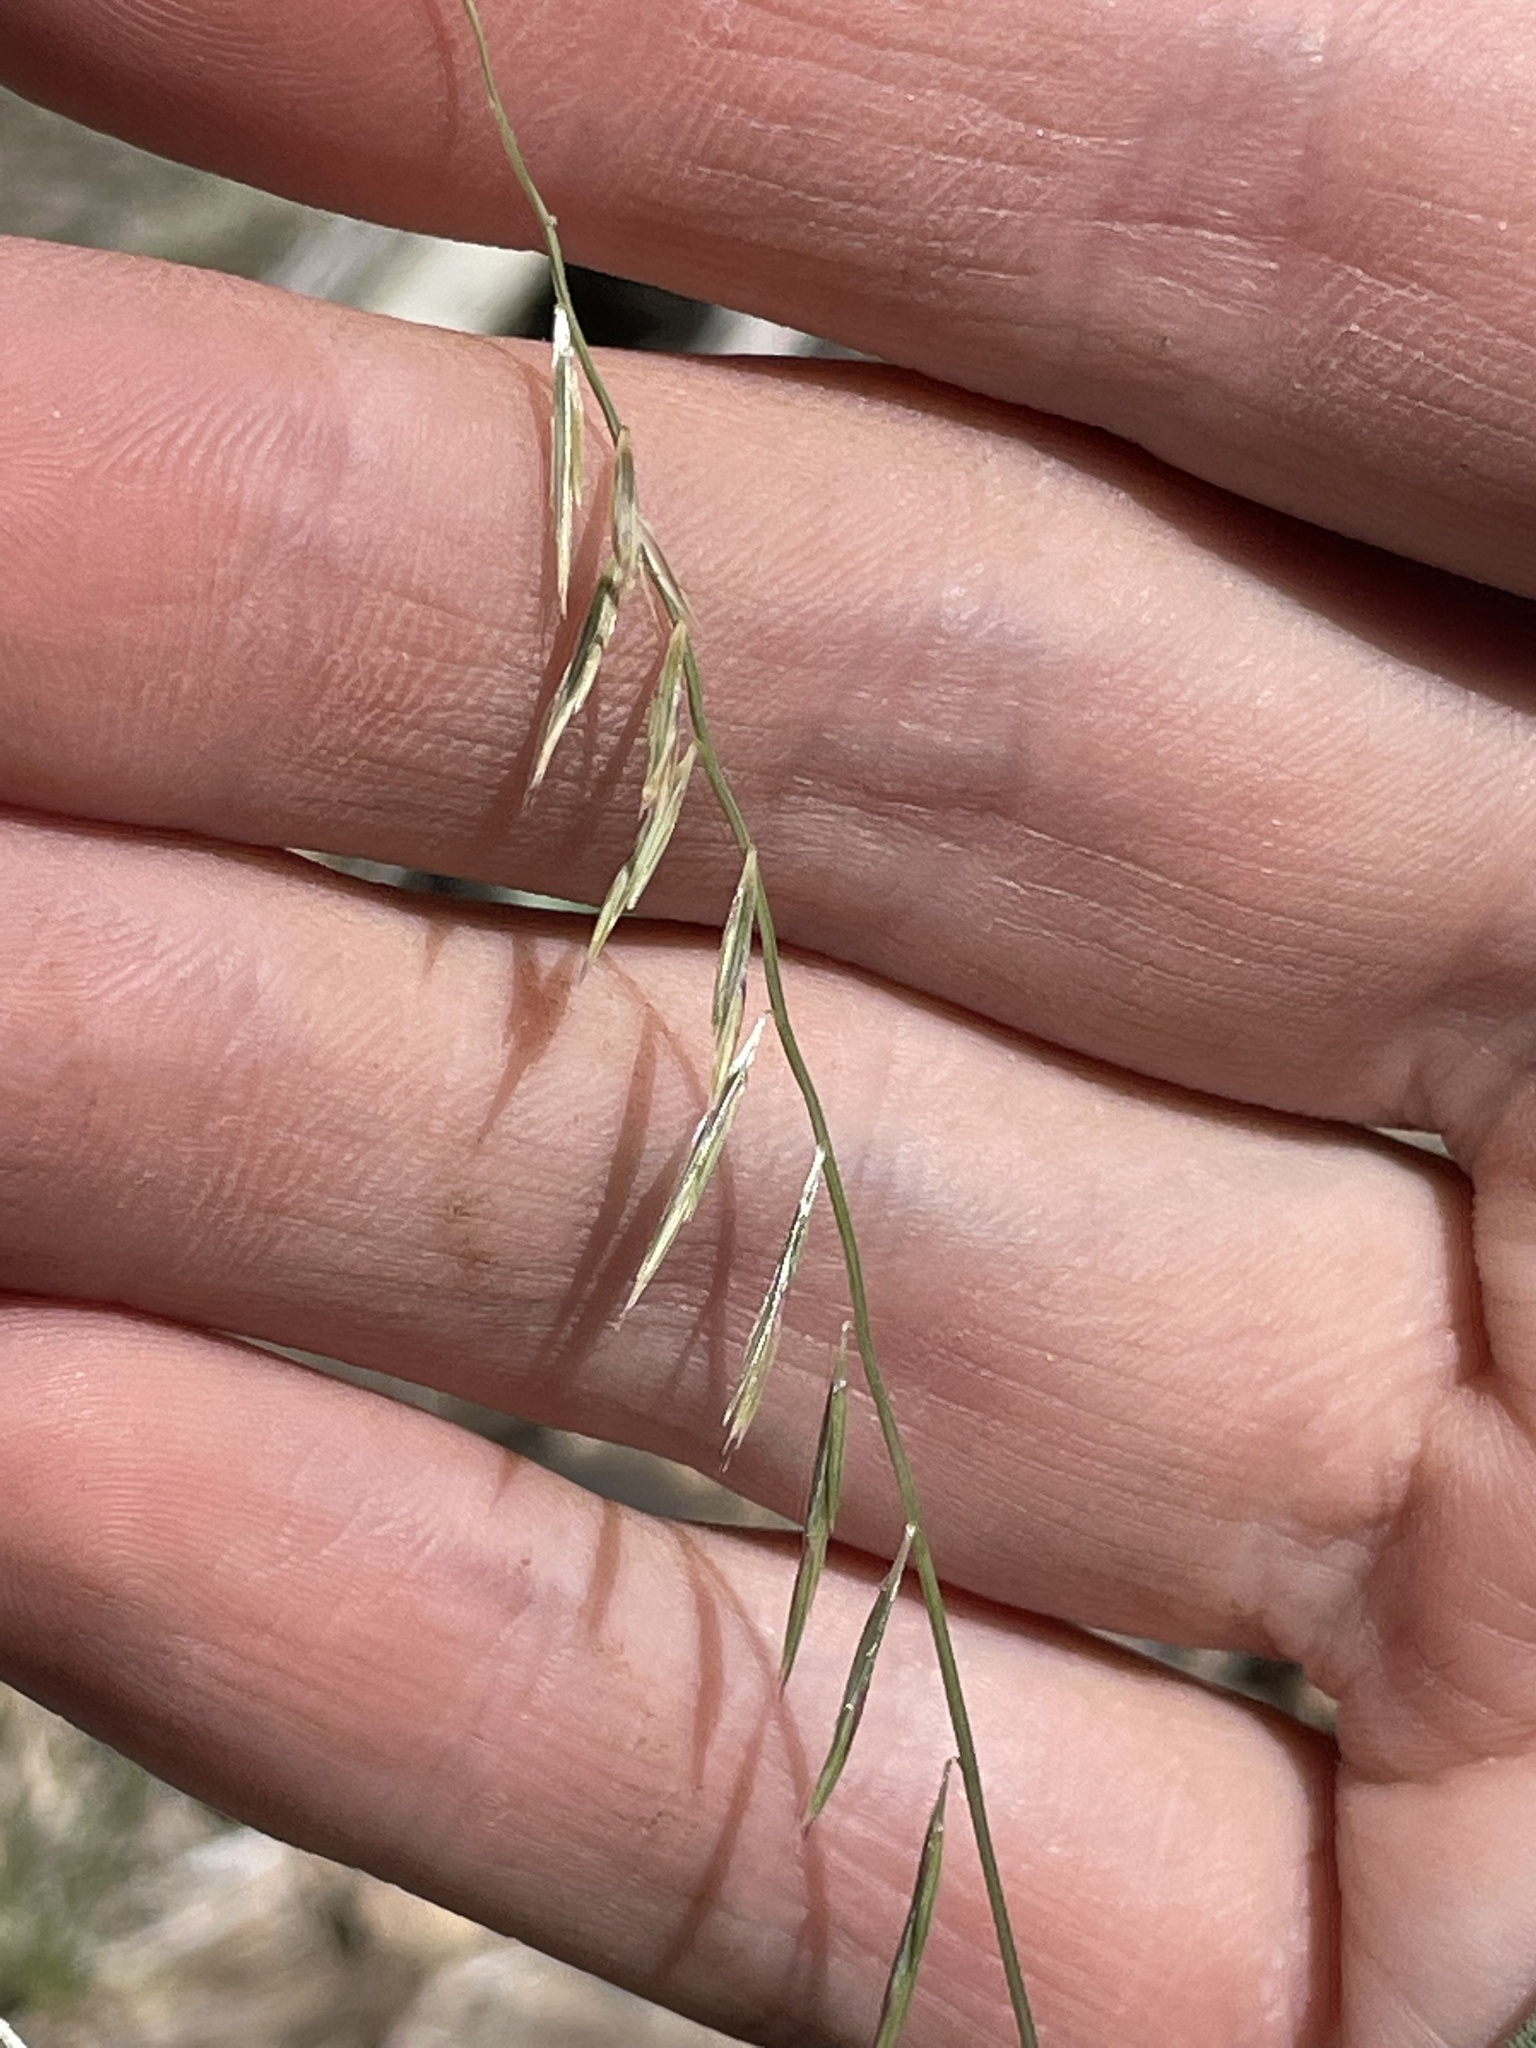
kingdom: Plantae
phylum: Tracheophyta
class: Liliopsida
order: Poales
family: Poaceae
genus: Bouteloua
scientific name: Bouteloua aristidoides
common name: Needle grama
